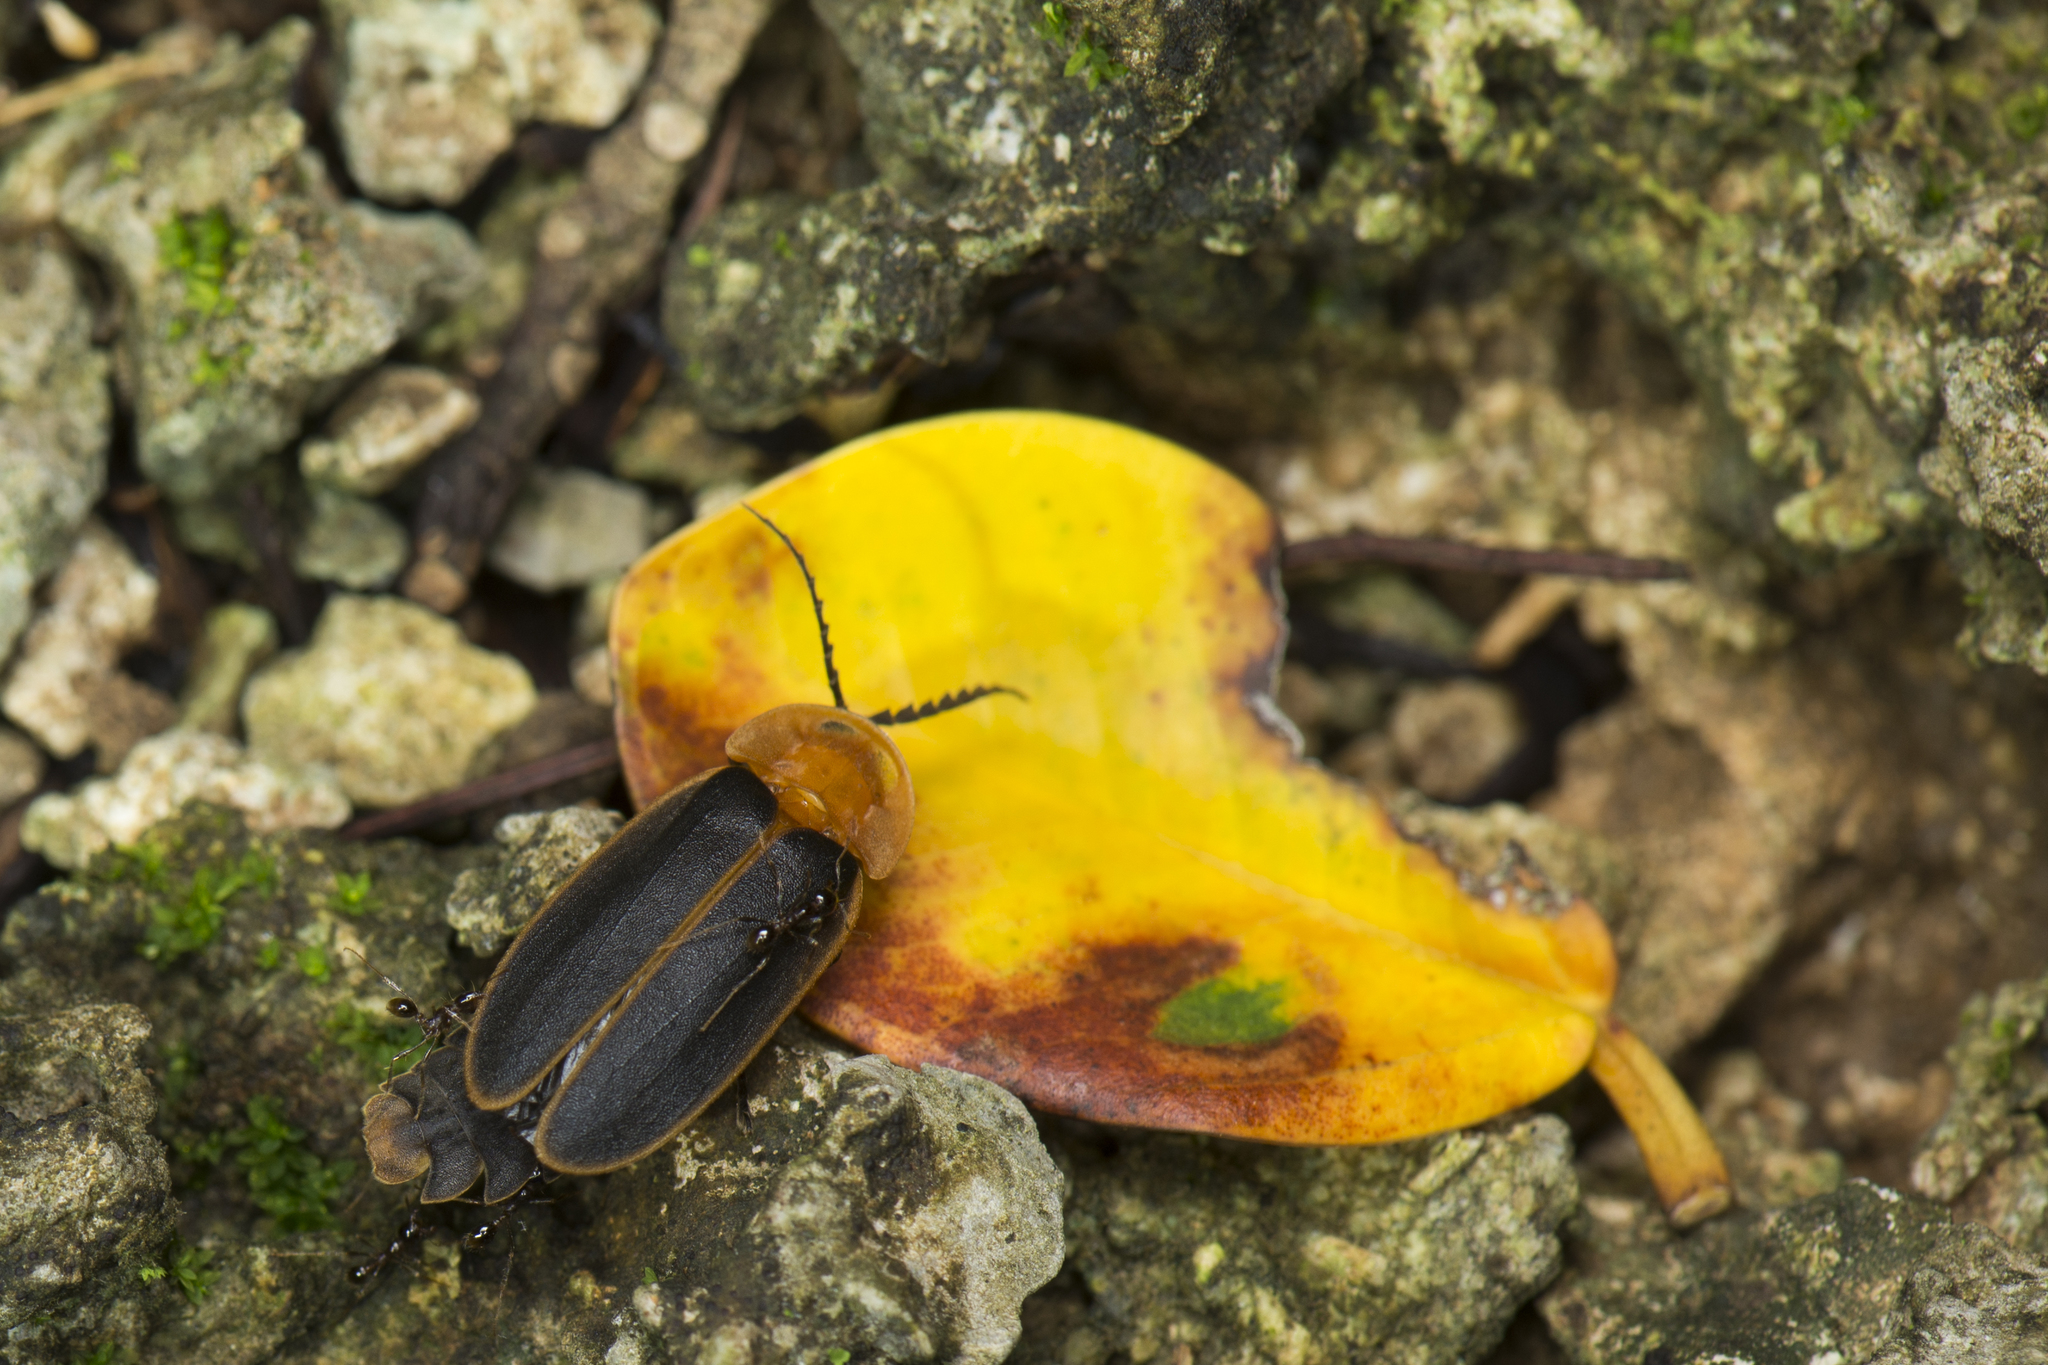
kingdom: Animalia
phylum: Arthropoda
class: Insecta
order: Coleoptera
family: Lampyridae
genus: Pyrocoelia
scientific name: Pyrocoelia analis
